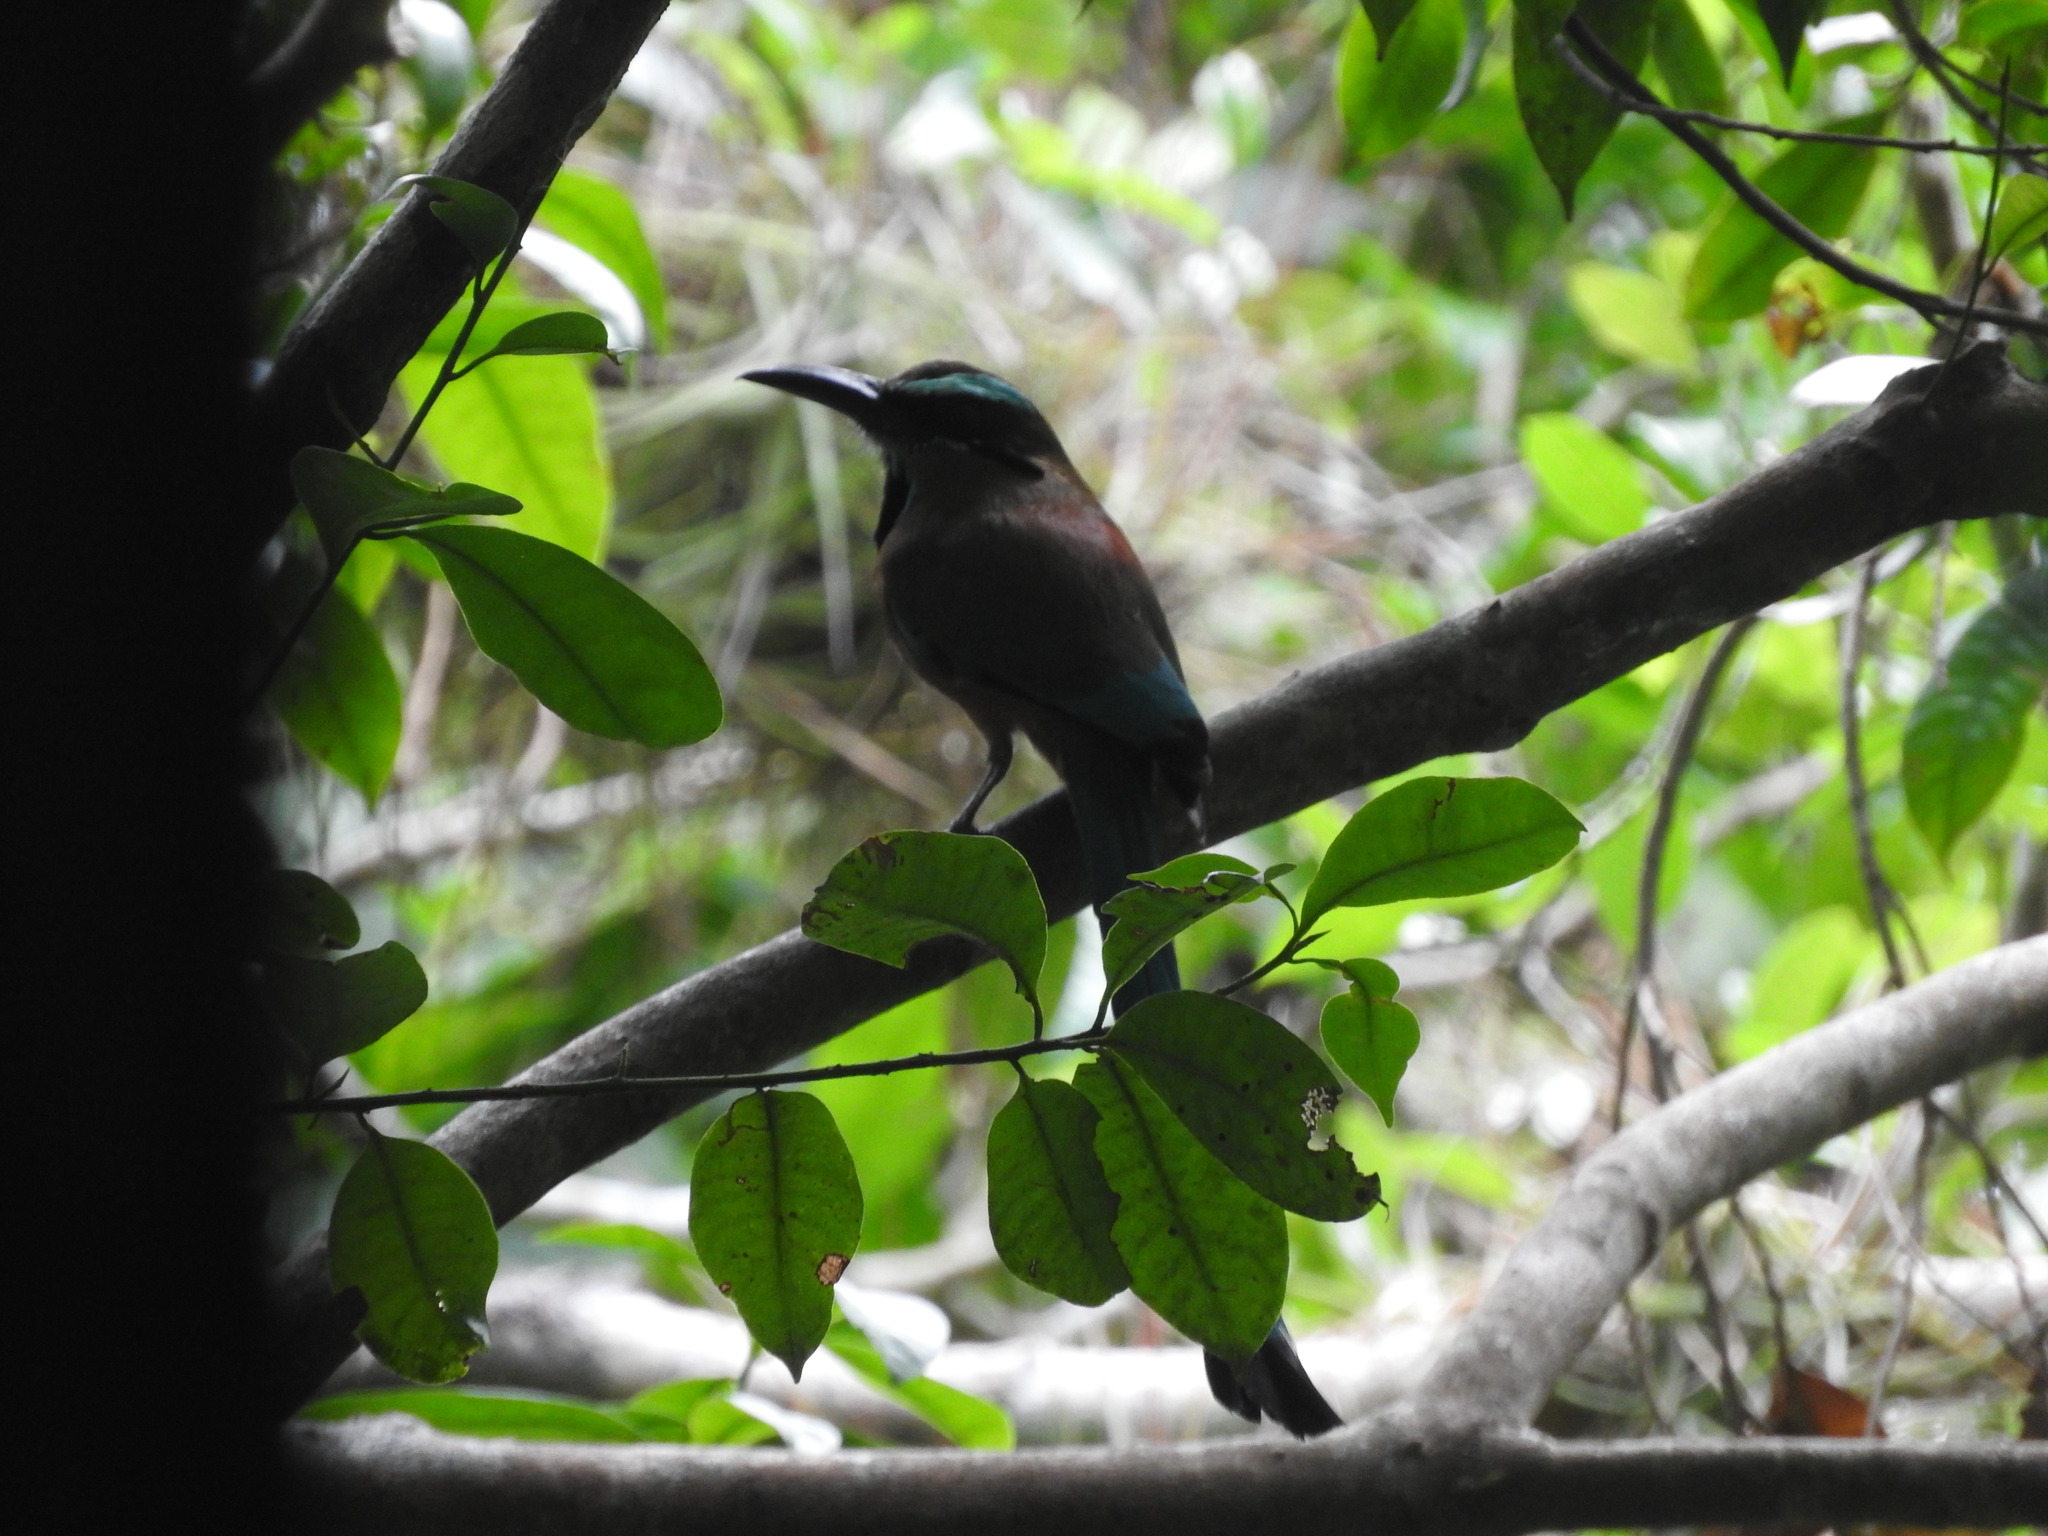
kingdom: Animalia
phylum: Chordata
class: Aves
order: Coraciiformes
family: Momotidae
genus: Eumomota
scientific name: Eumomota superciliosa
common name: Turquoise-browed motmot
